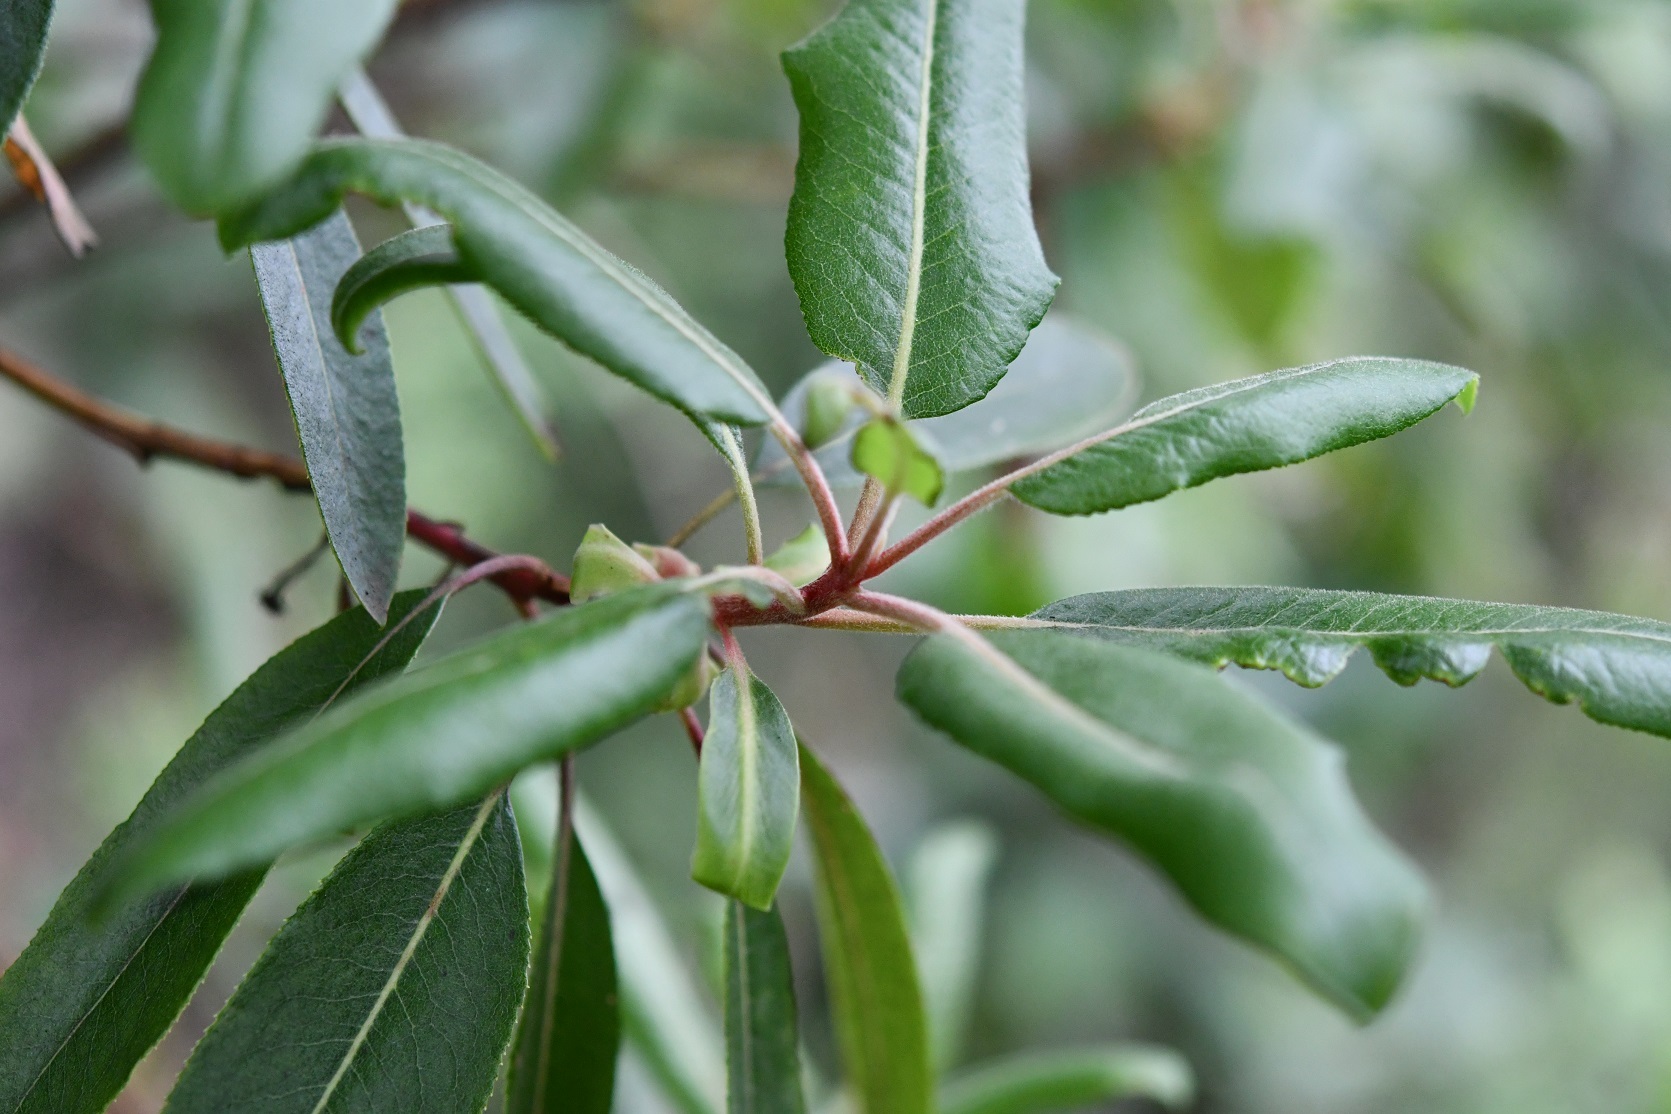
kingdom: Plantae
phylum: Tracheophyta
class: Magnoliopsida
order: Ericales
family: Ericaceae
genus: Arbutus
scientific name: Arbutus xalapensis
